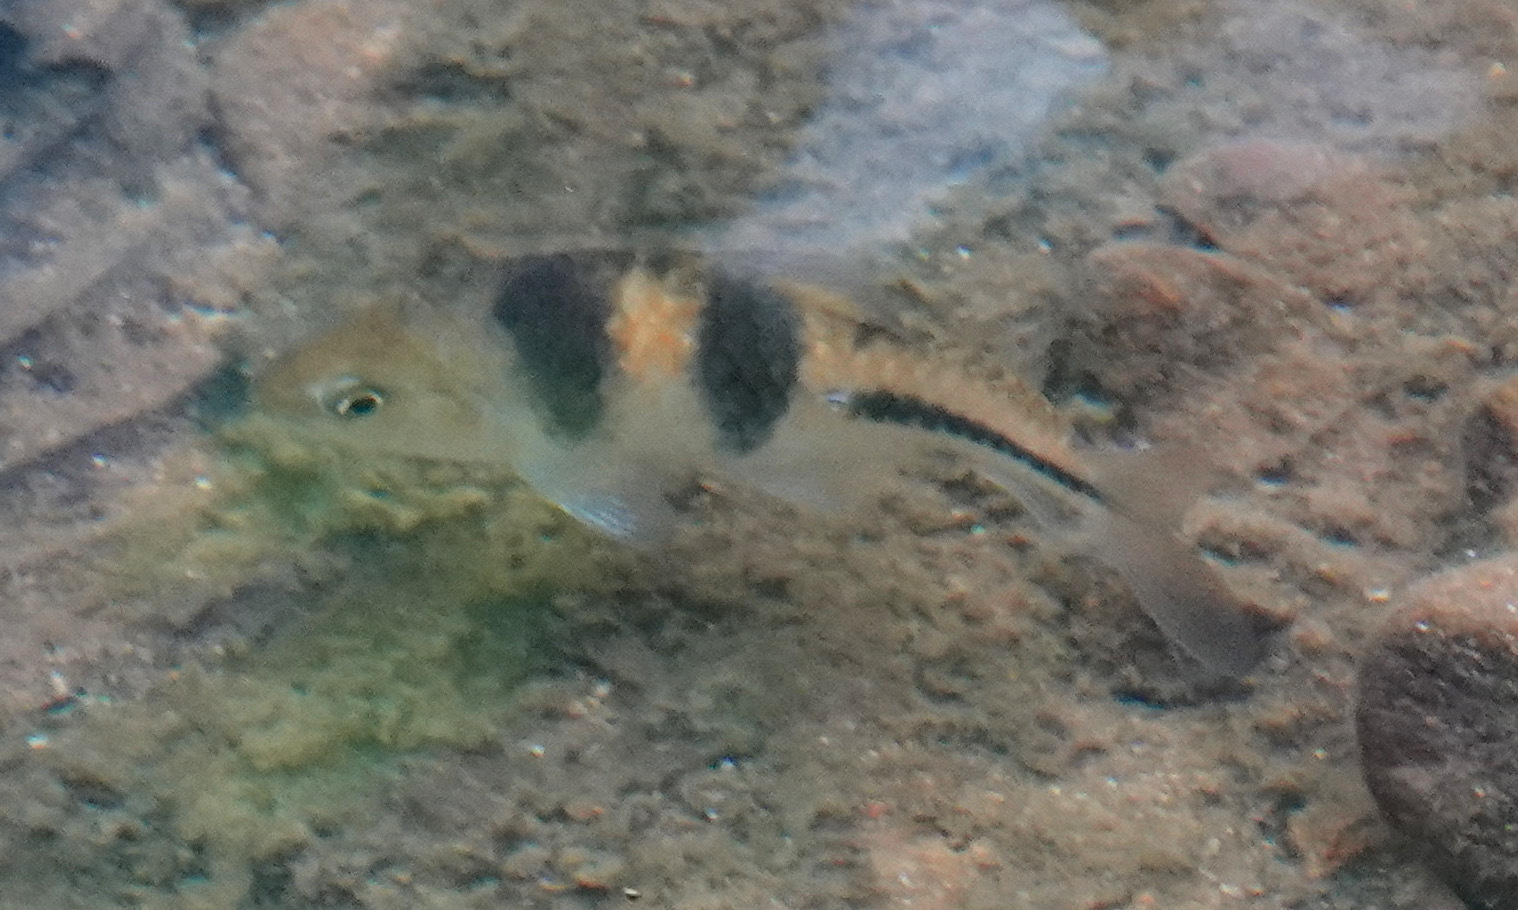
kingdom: Animalia
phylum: Chordata
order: Cypriniformes
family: Cyprinidae
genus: Barbodes
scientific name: Barbodes lateristriga
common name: Spanner barb
